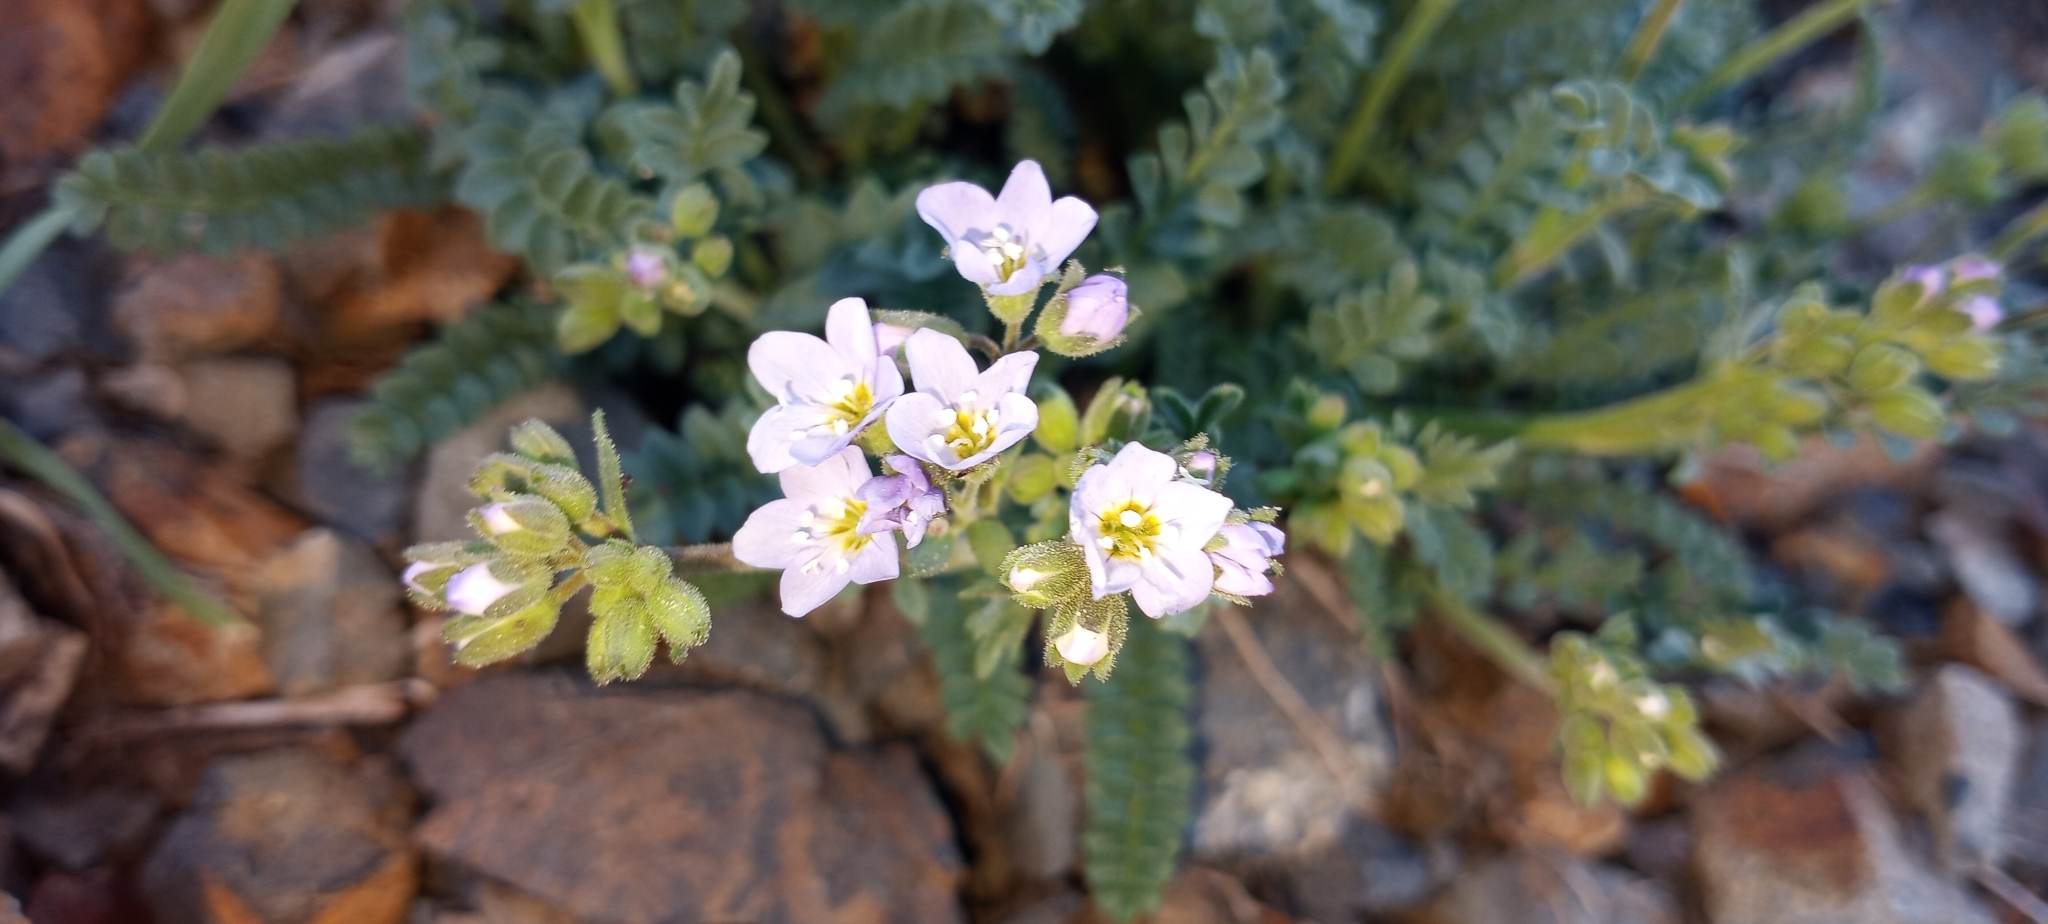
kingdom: Plantae
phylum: Tracheophyta
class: Magnoliopsida
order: Ericales
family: Polemoniaceae
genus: Polemonium
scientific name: Polemonium pulcherrimum
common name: Short jacob's-ladder
